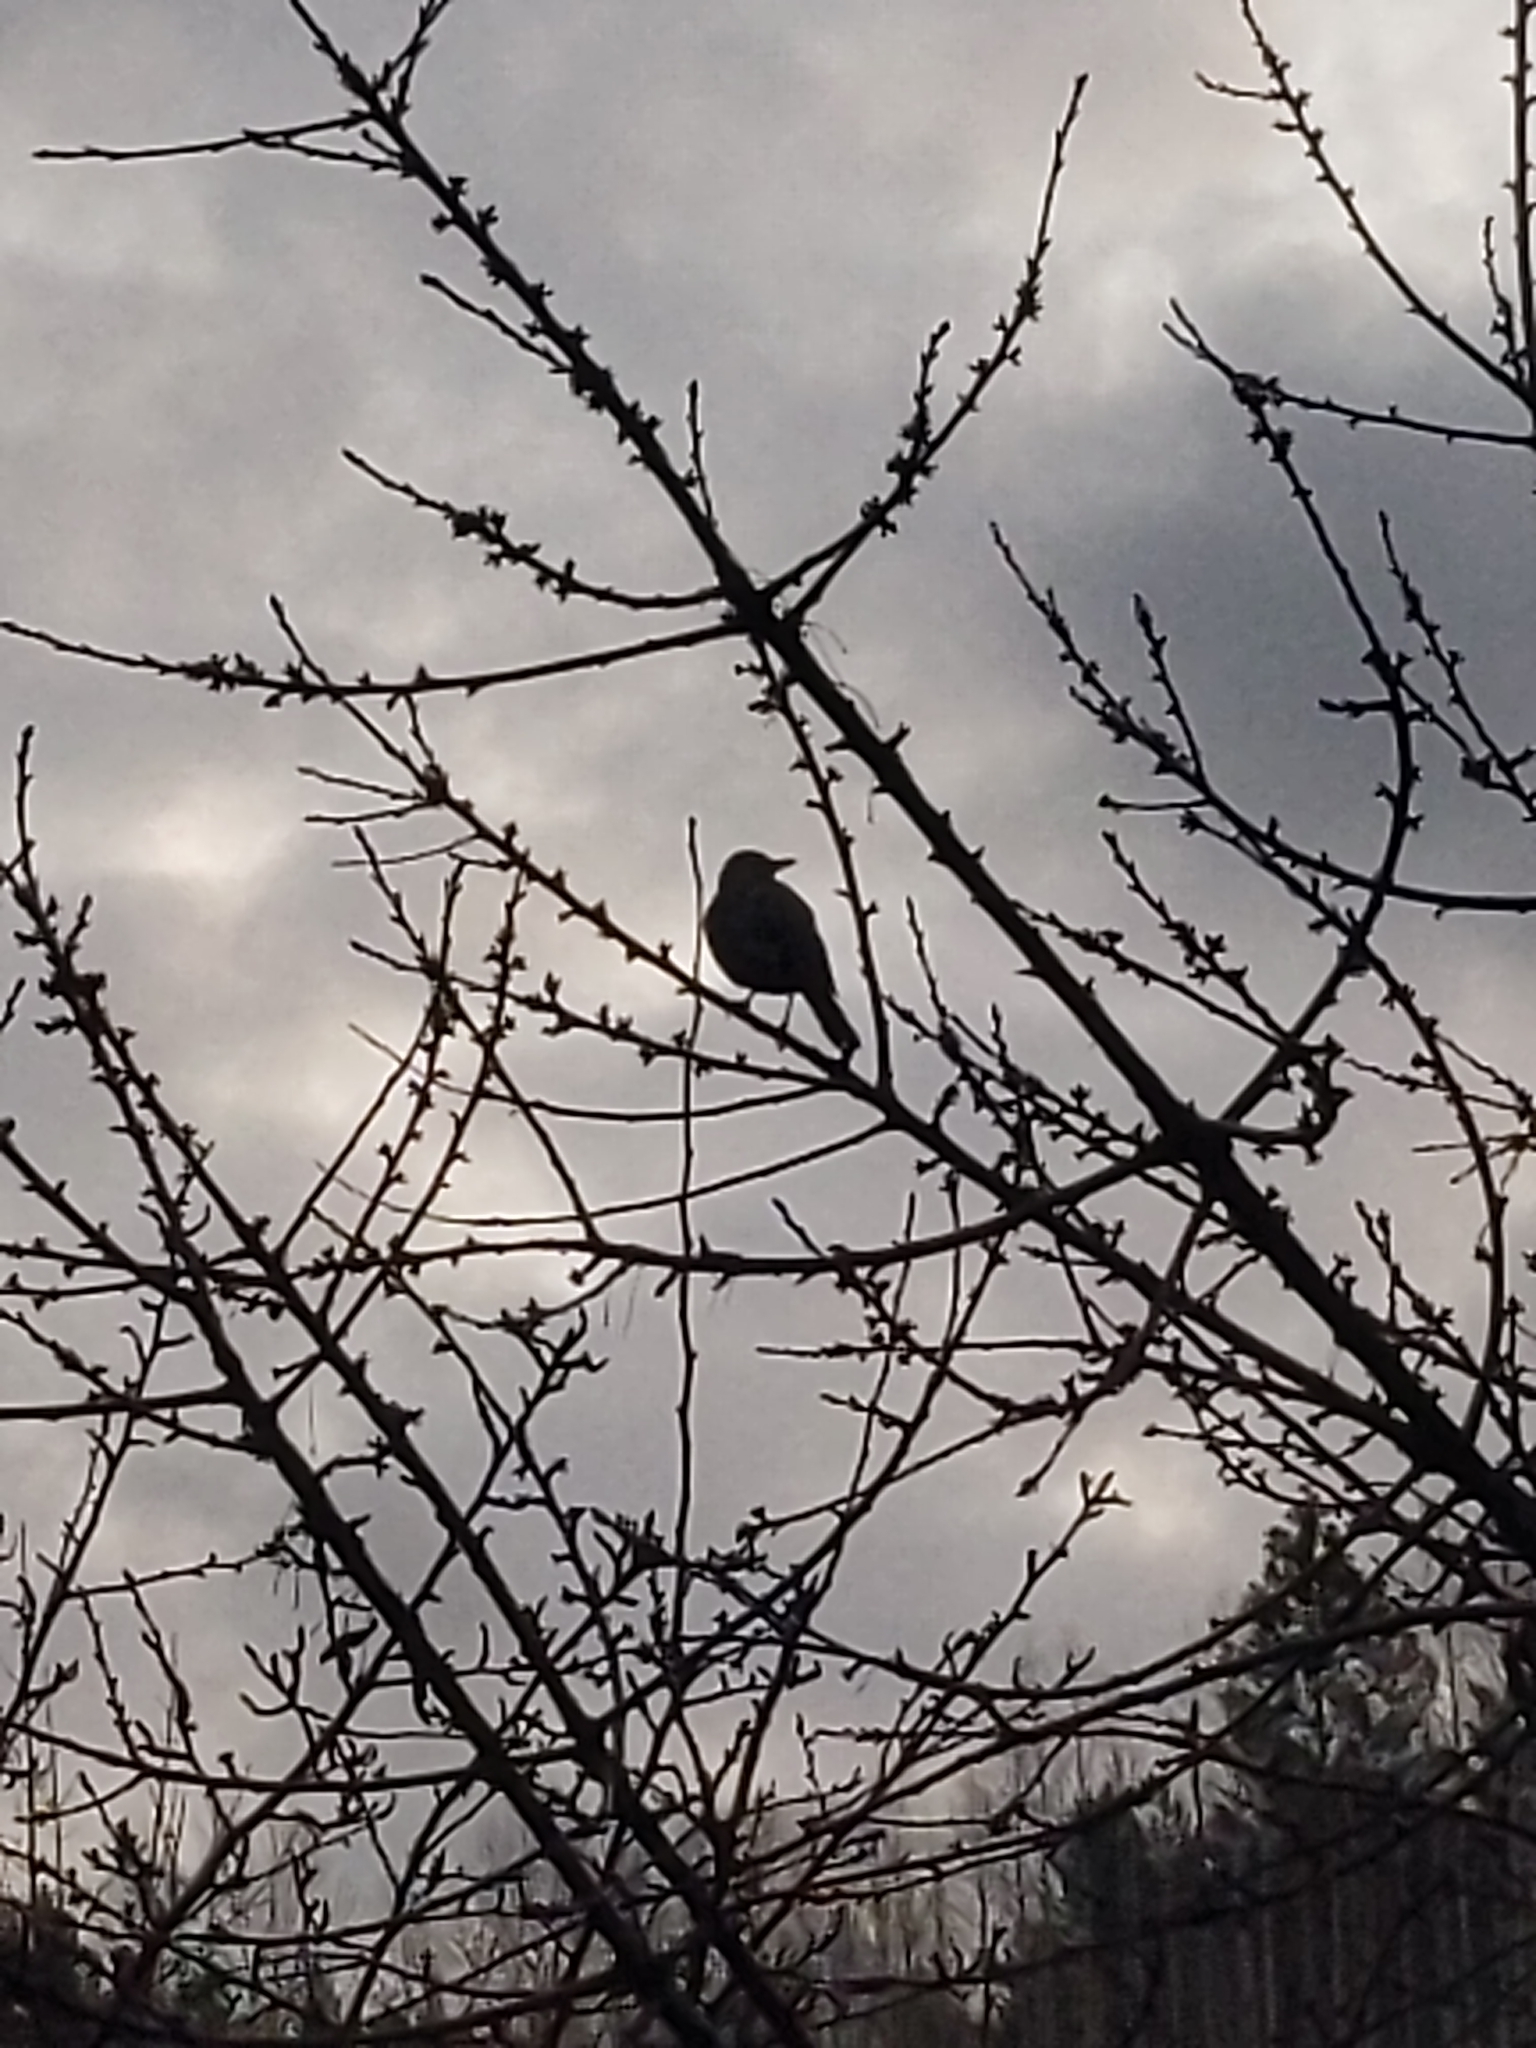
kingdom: Animalia
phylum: Chordata
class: Aves
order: Passeriformes
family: Turdidae
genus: Turdus
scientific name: Turdus migratorius
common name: American robin
